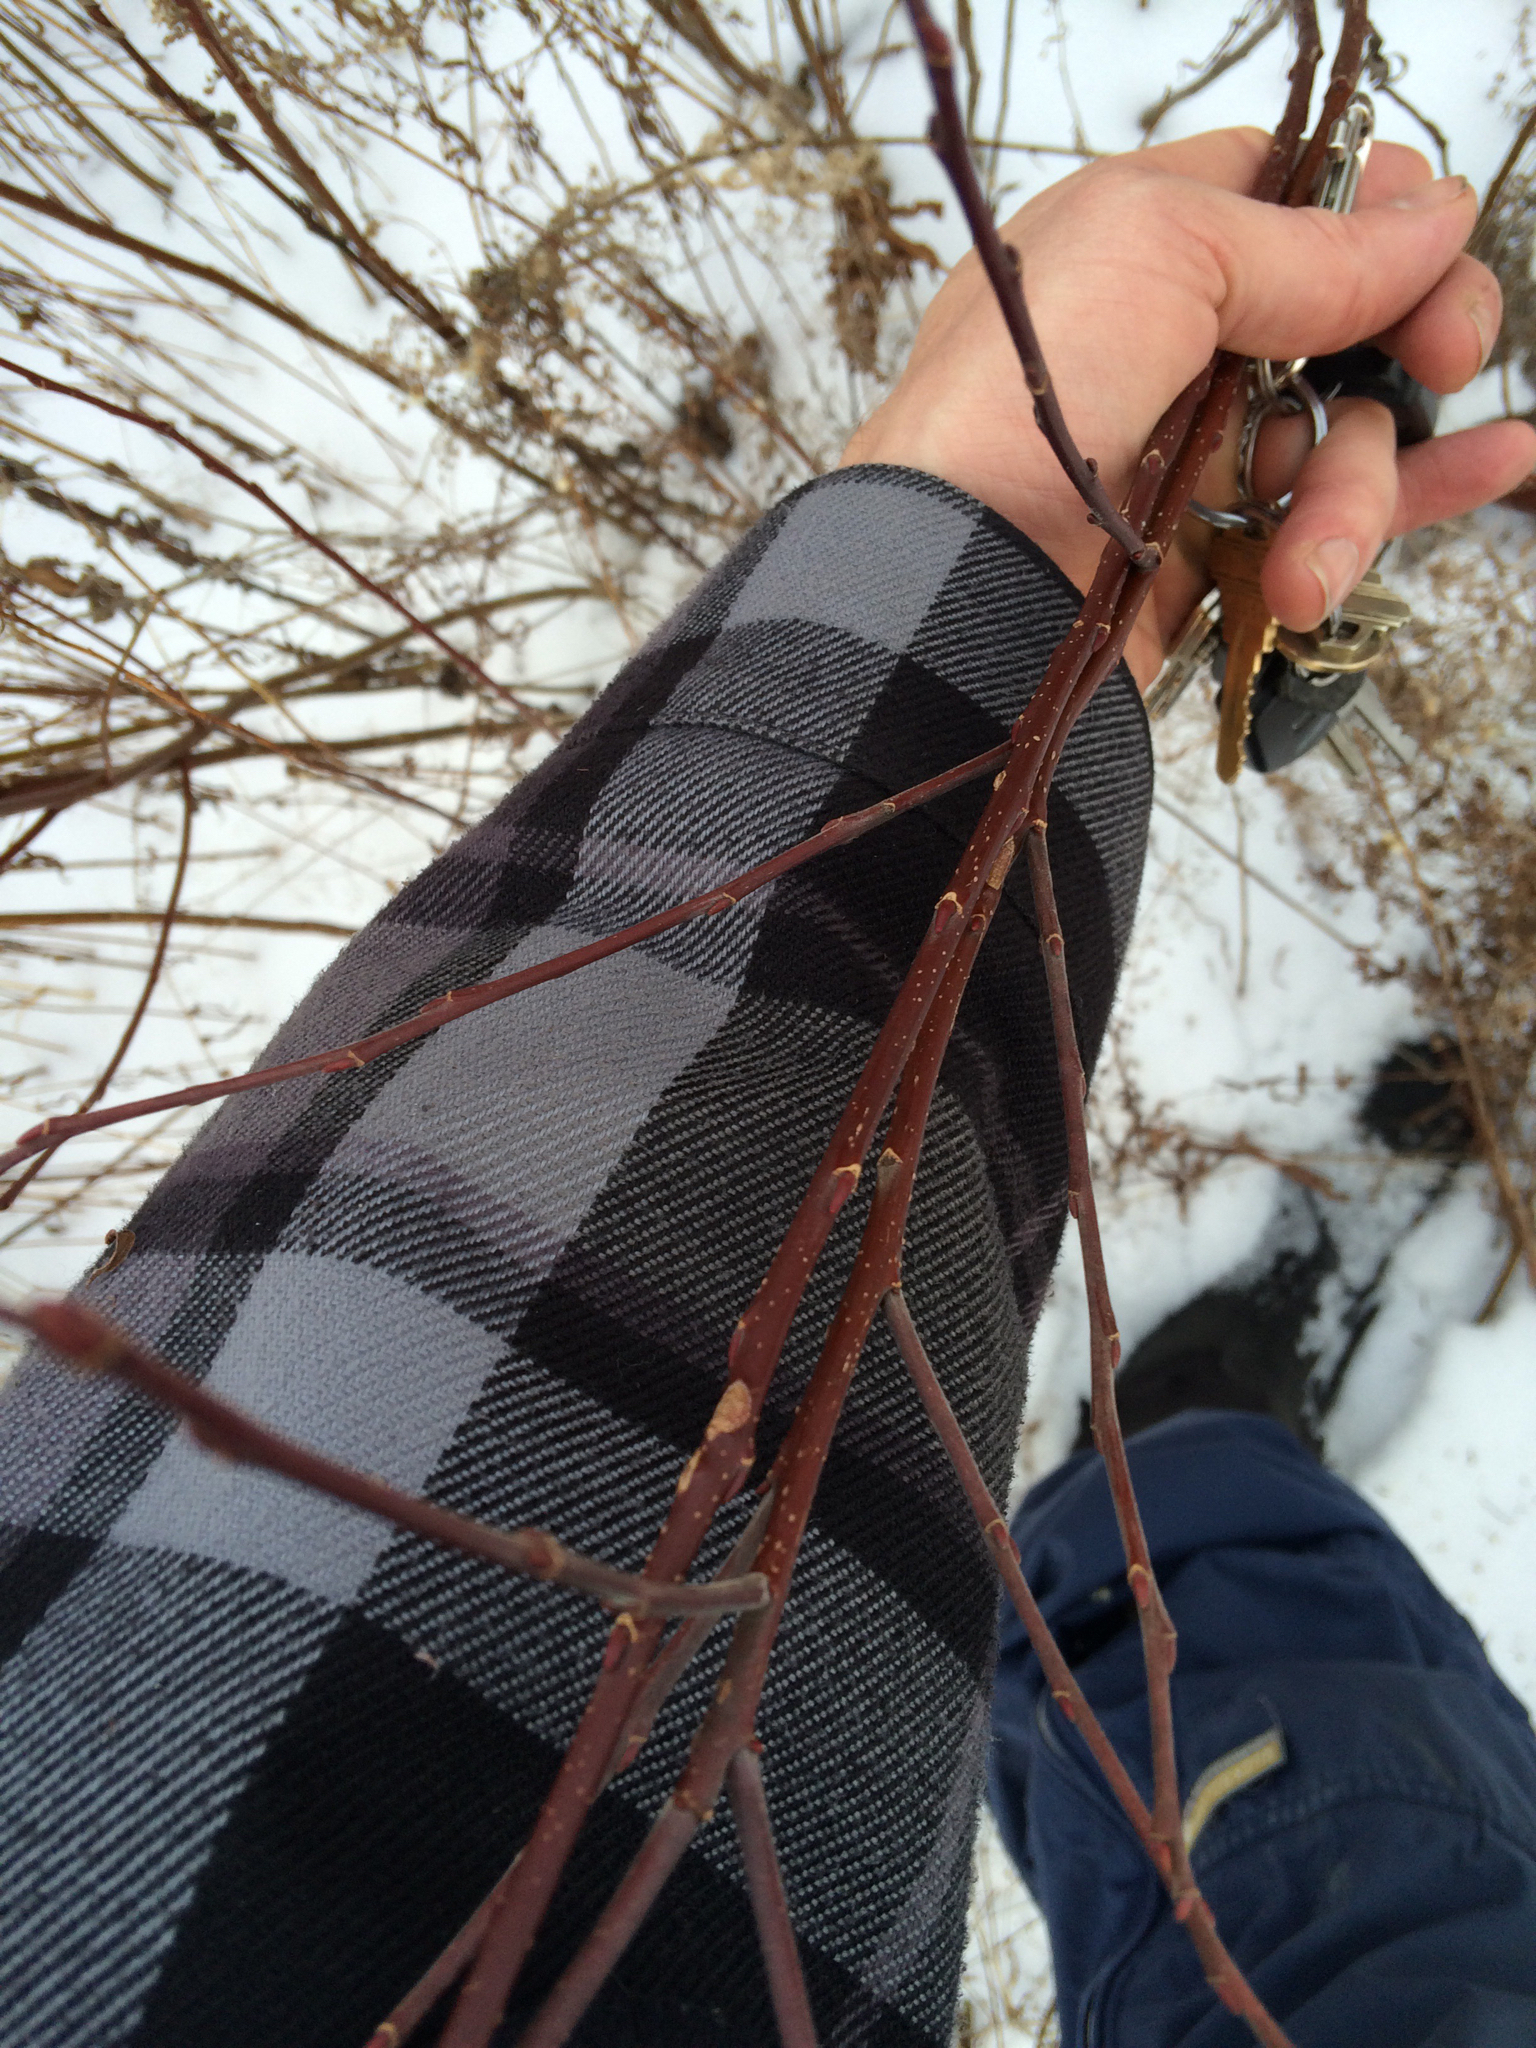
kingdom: Plantae
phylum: Tracheophyta
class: Magnoliopsida
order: Cornales
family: Cornaceae
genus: Cornus
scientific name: Cornus sericea
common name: Red-osier dogwood
